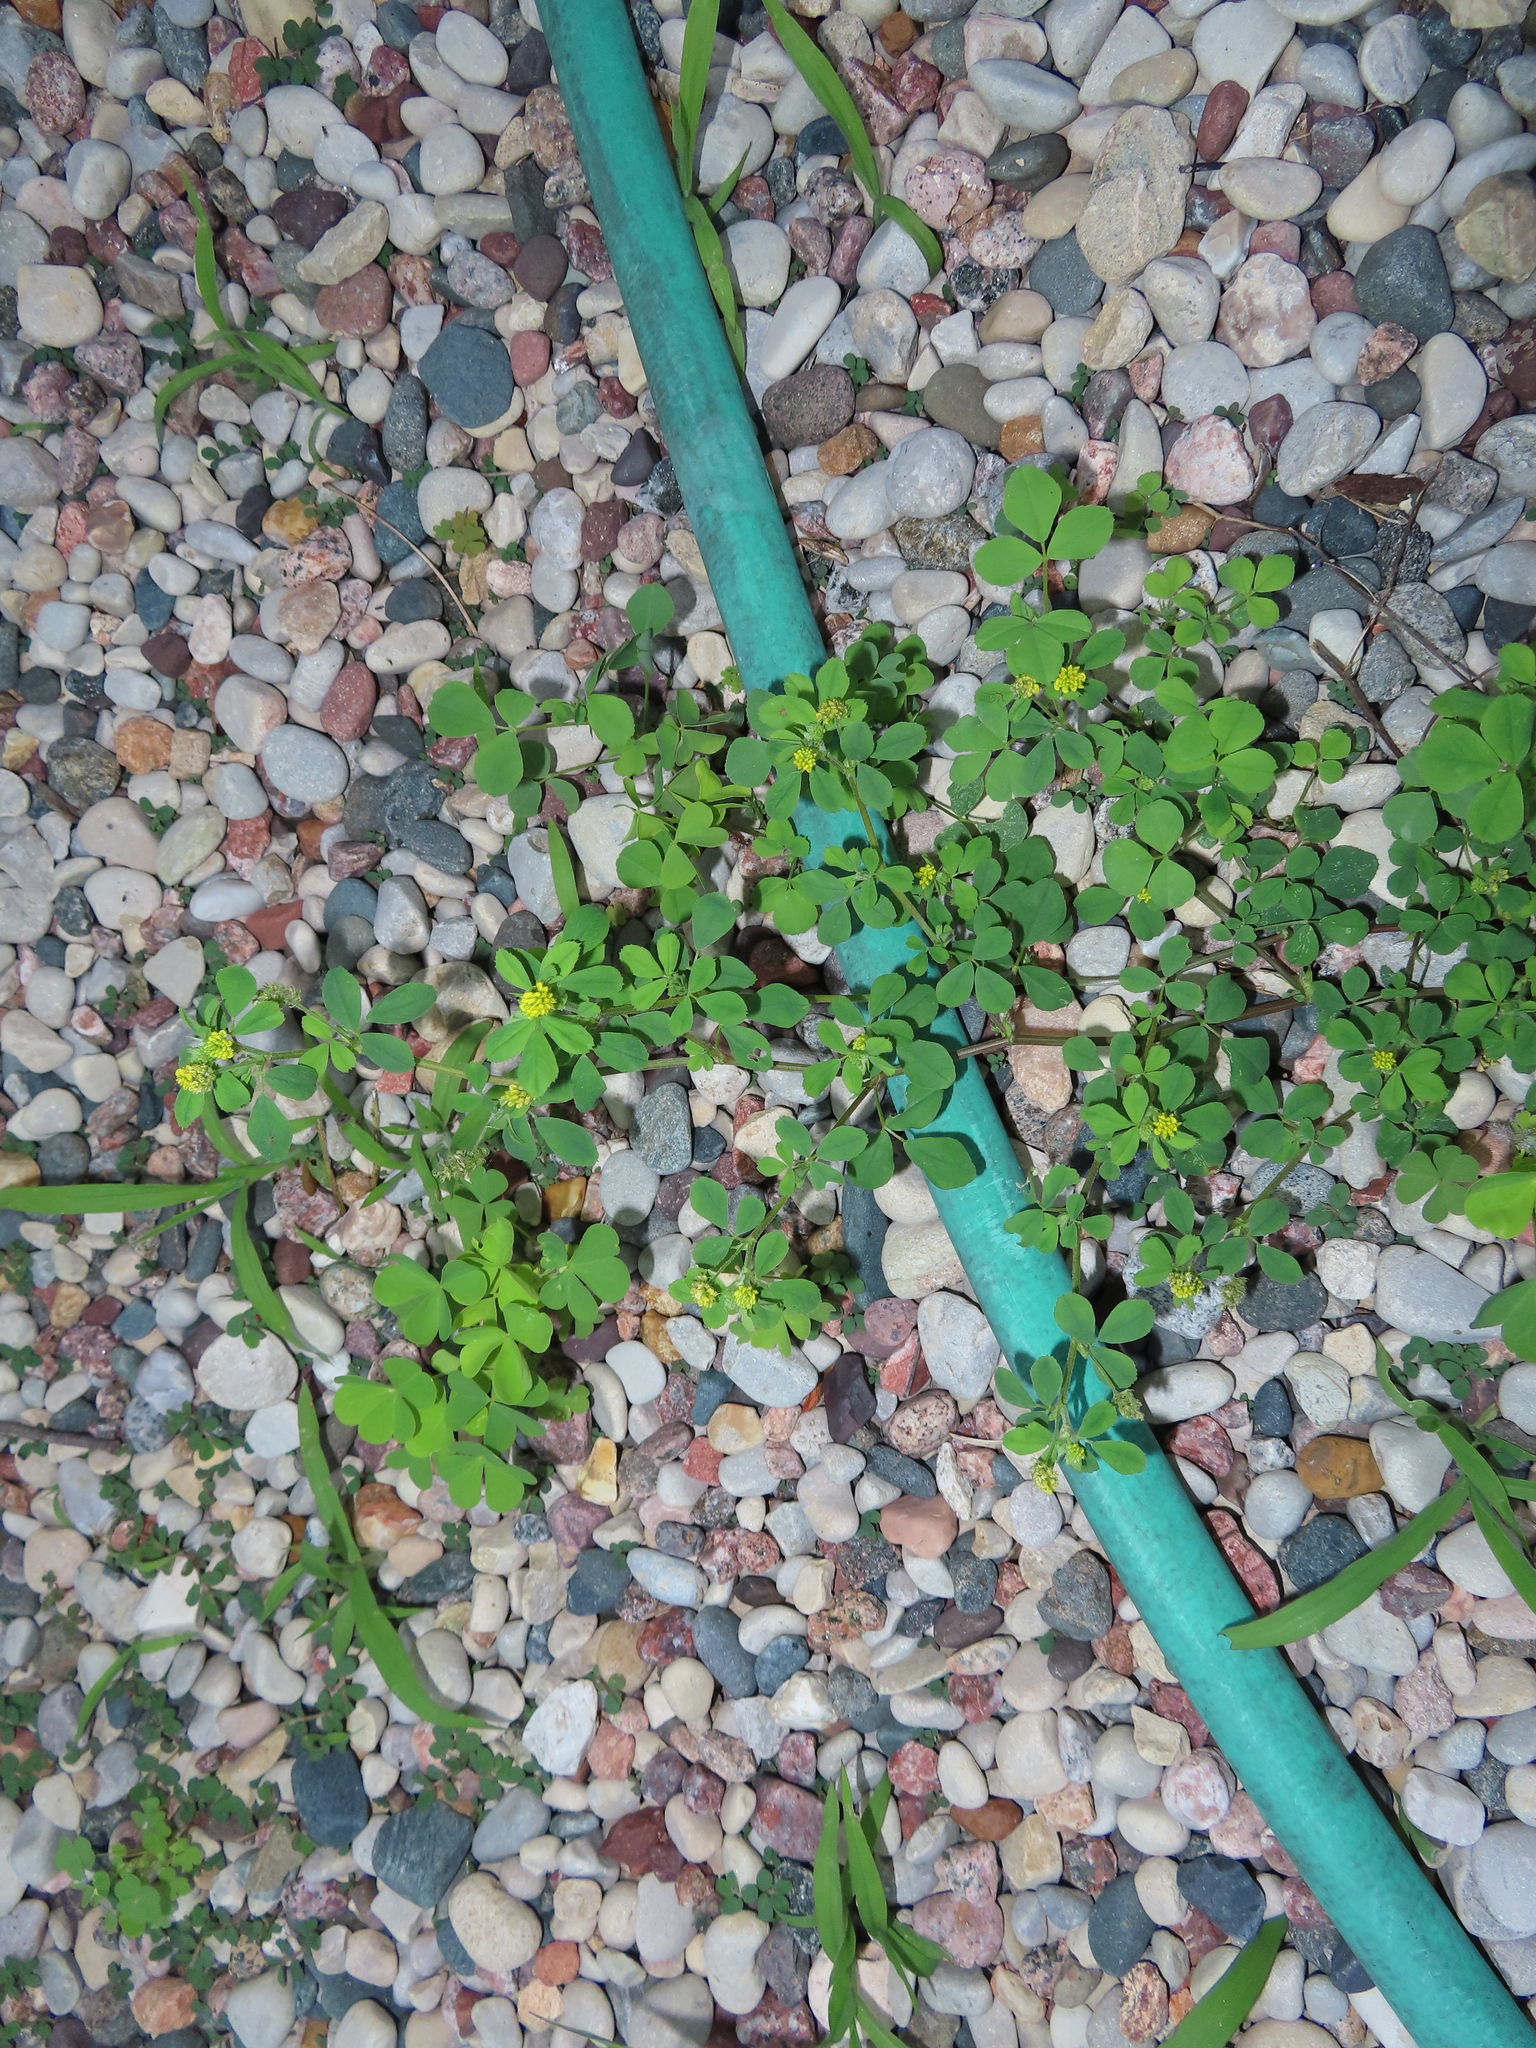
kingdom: Plantae
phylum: Tracheophyta
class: Magnoliopsida
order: Fabales
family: Fabaceae
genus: Medicago
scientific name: Medicago lupulina
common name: Black medick
